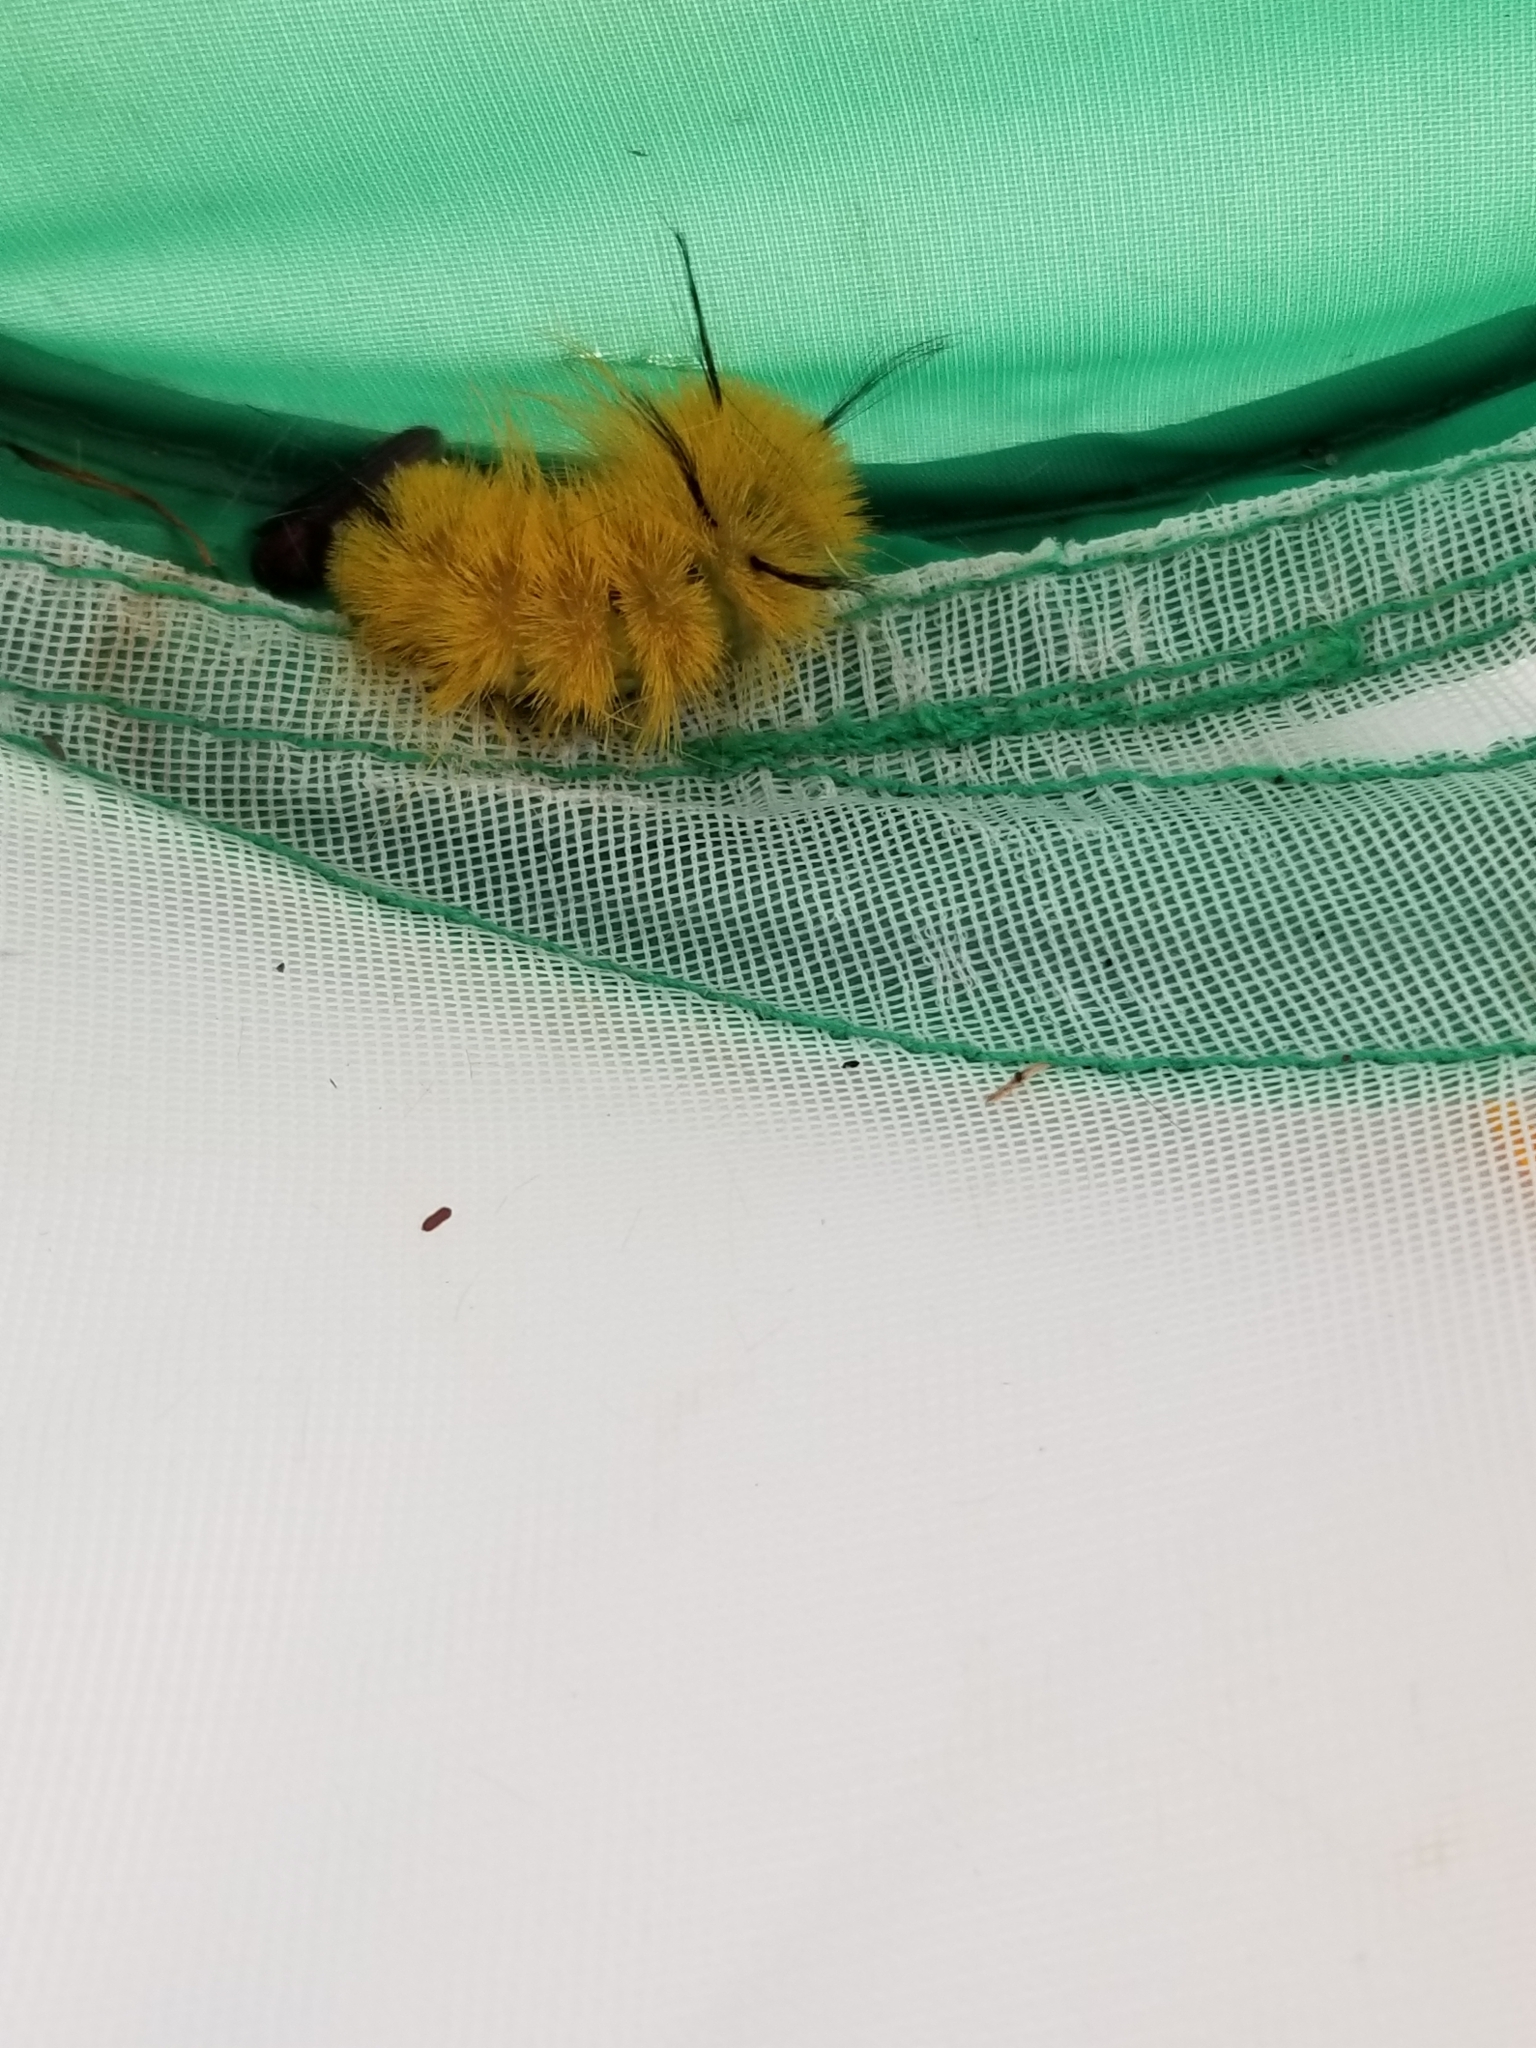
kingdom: Animalia
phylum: Arthropoda
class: Insecta
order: Lepidoptera
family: Noctuidae
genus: Acronicta
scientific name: Acronicta americana
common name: American dagger
